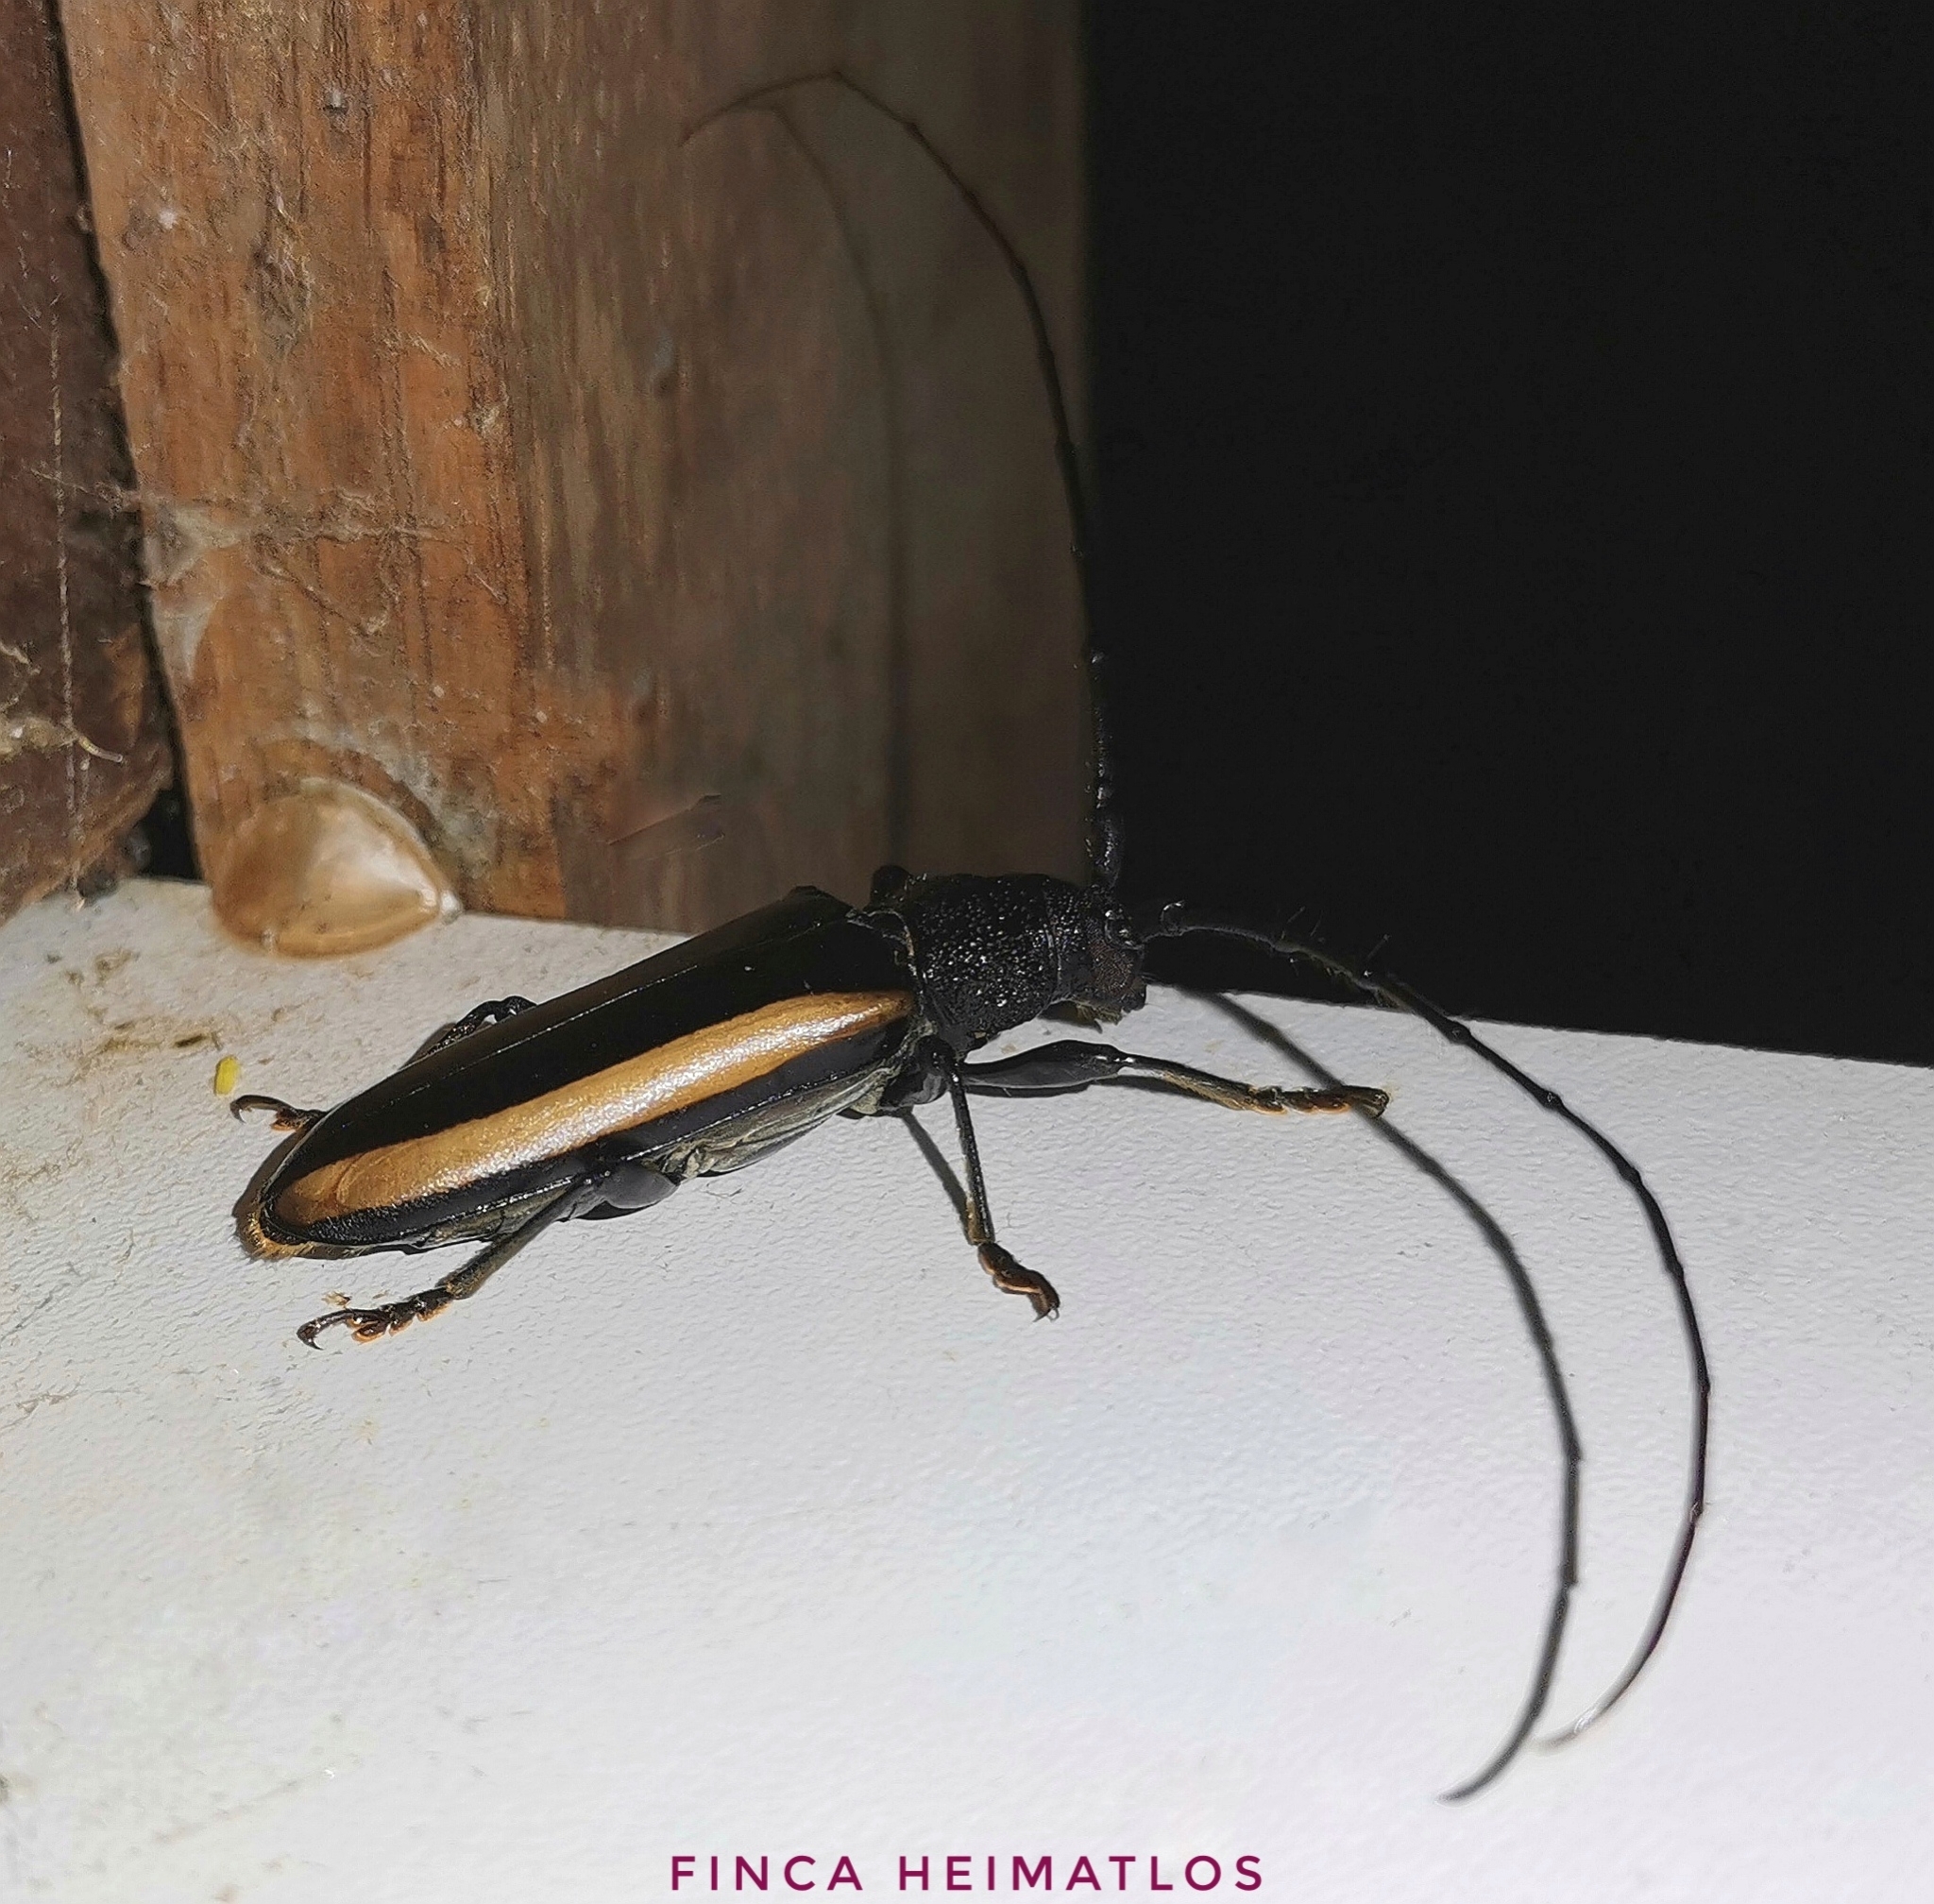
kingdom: Animalia
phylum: Arthropoda
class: Insecta
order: Coleoptera
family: Cerambycidae
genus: Poeciloxestia
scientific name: Poeciloxestia lateralis
